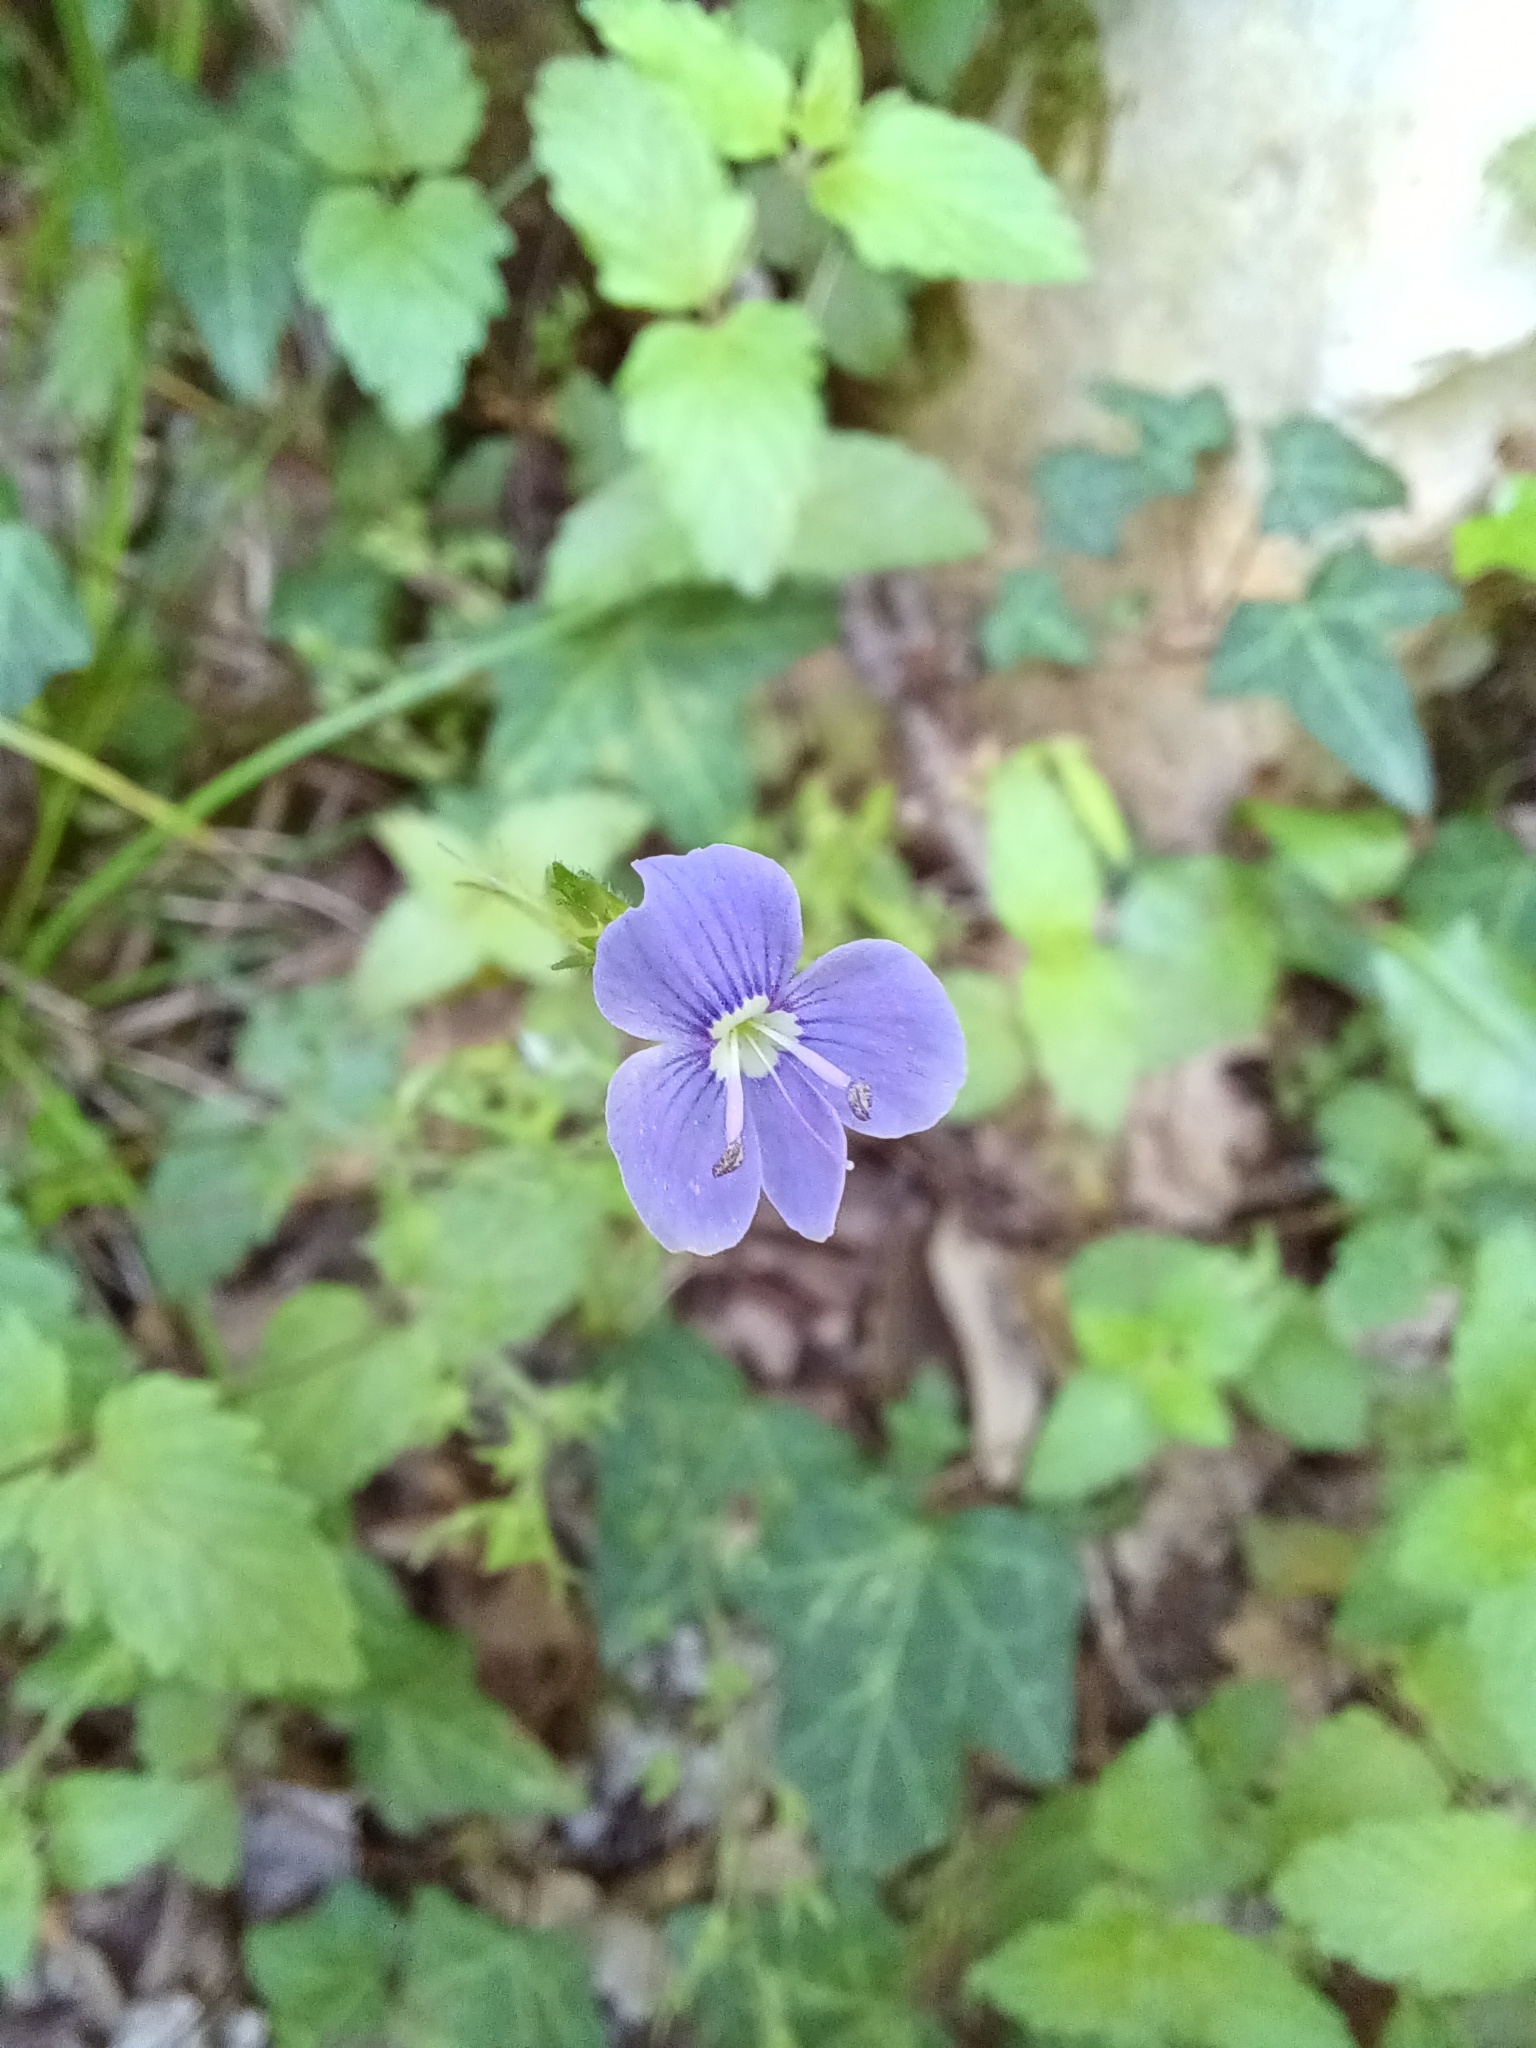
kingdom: Plantae
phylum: Tracheophyta
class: Magnoliopsida
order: Lamiales
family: Plantaginaceae
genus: Veronica
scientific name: Veronica chamaedrys
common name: Germander speedwell
